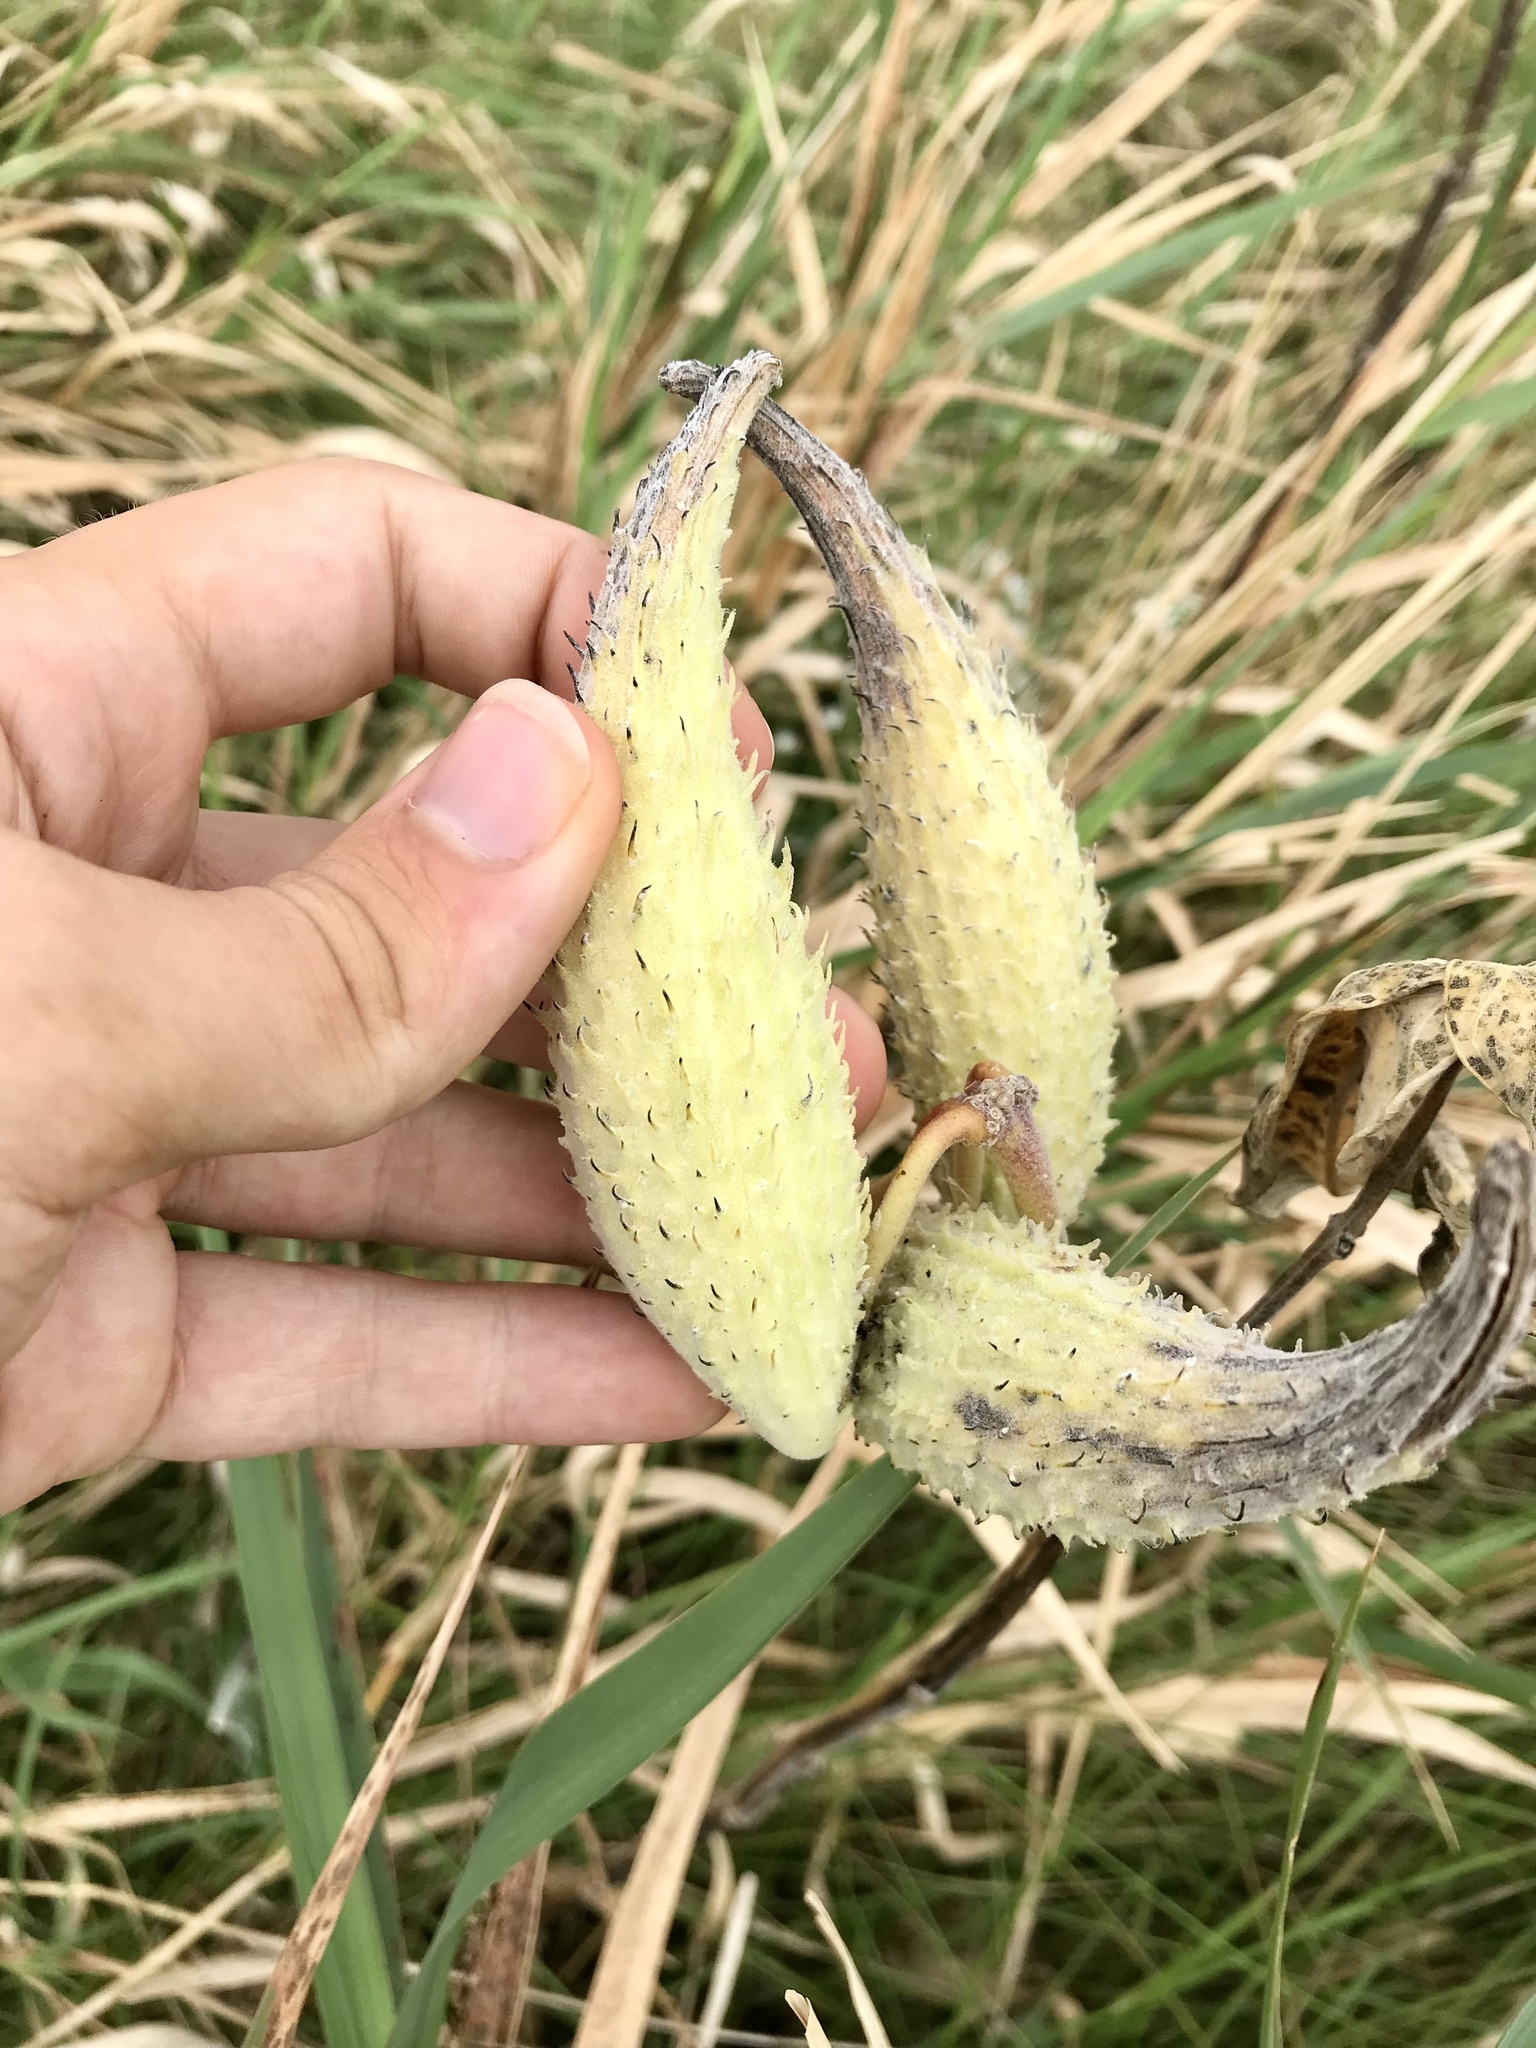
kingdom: Plantae
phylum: Tracheophyta
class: Magnoliopsida
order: Gentianales
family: Apocynaceae
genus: Asclepias
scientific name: Asclepias syriaca
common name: Common milkweed
